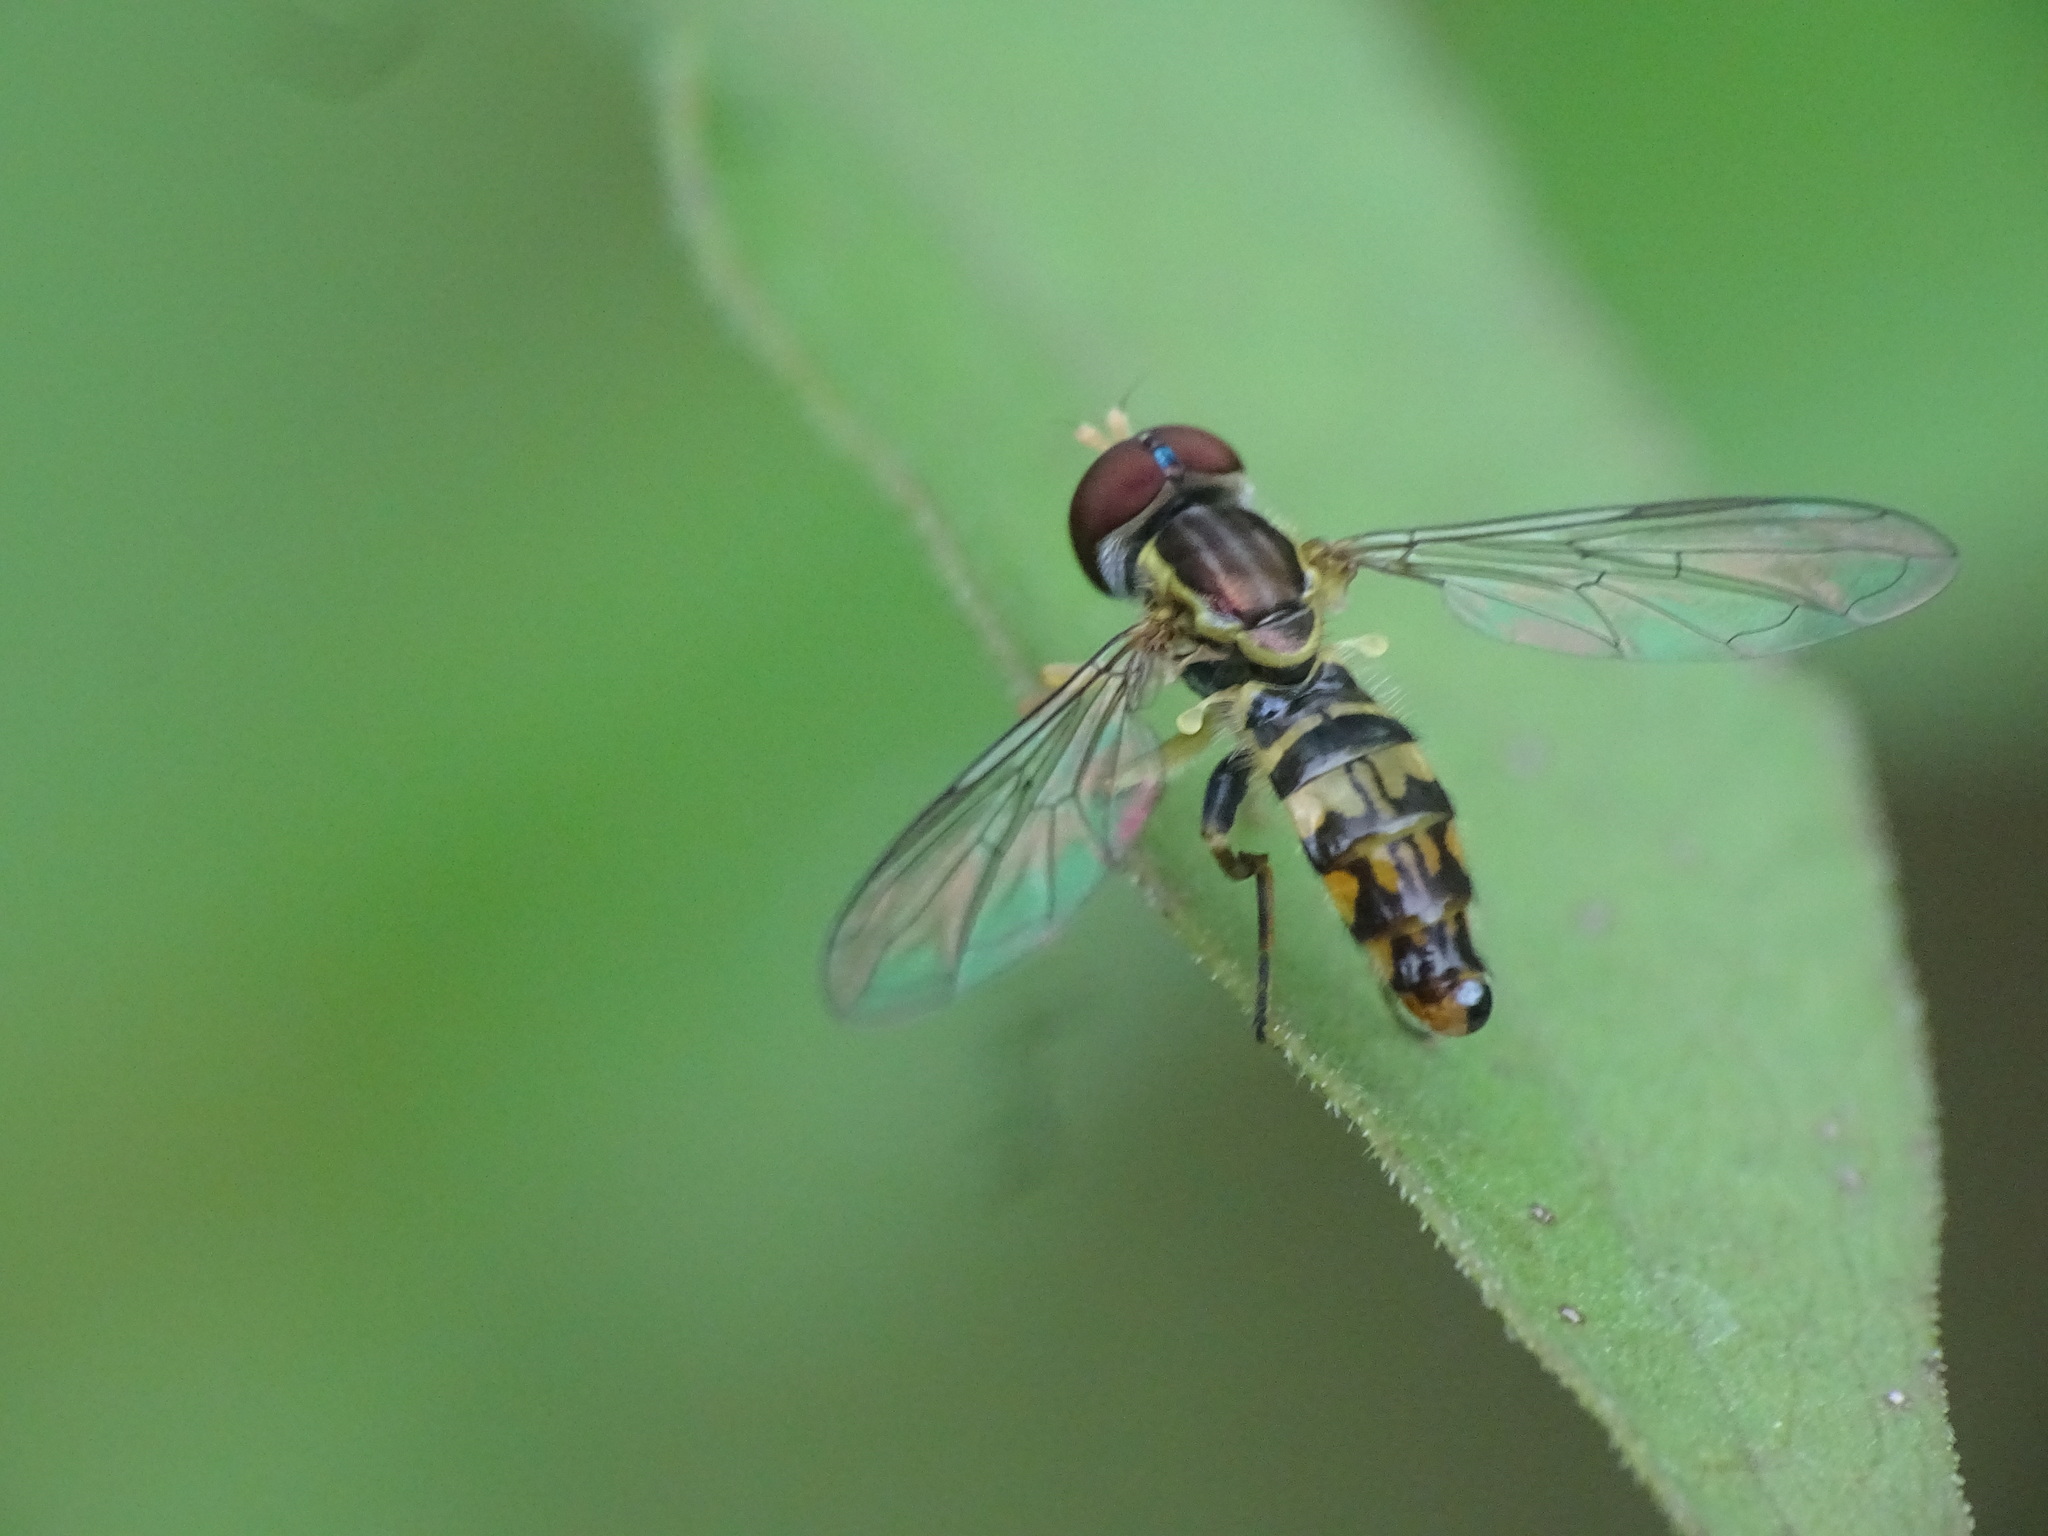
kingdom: Animalia
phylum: Arthropoda
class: Insecta
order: Diptera
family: Syrphidae
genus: Toxomerus
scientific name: Toxomerus geminatus
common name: Eastern calligrapher
